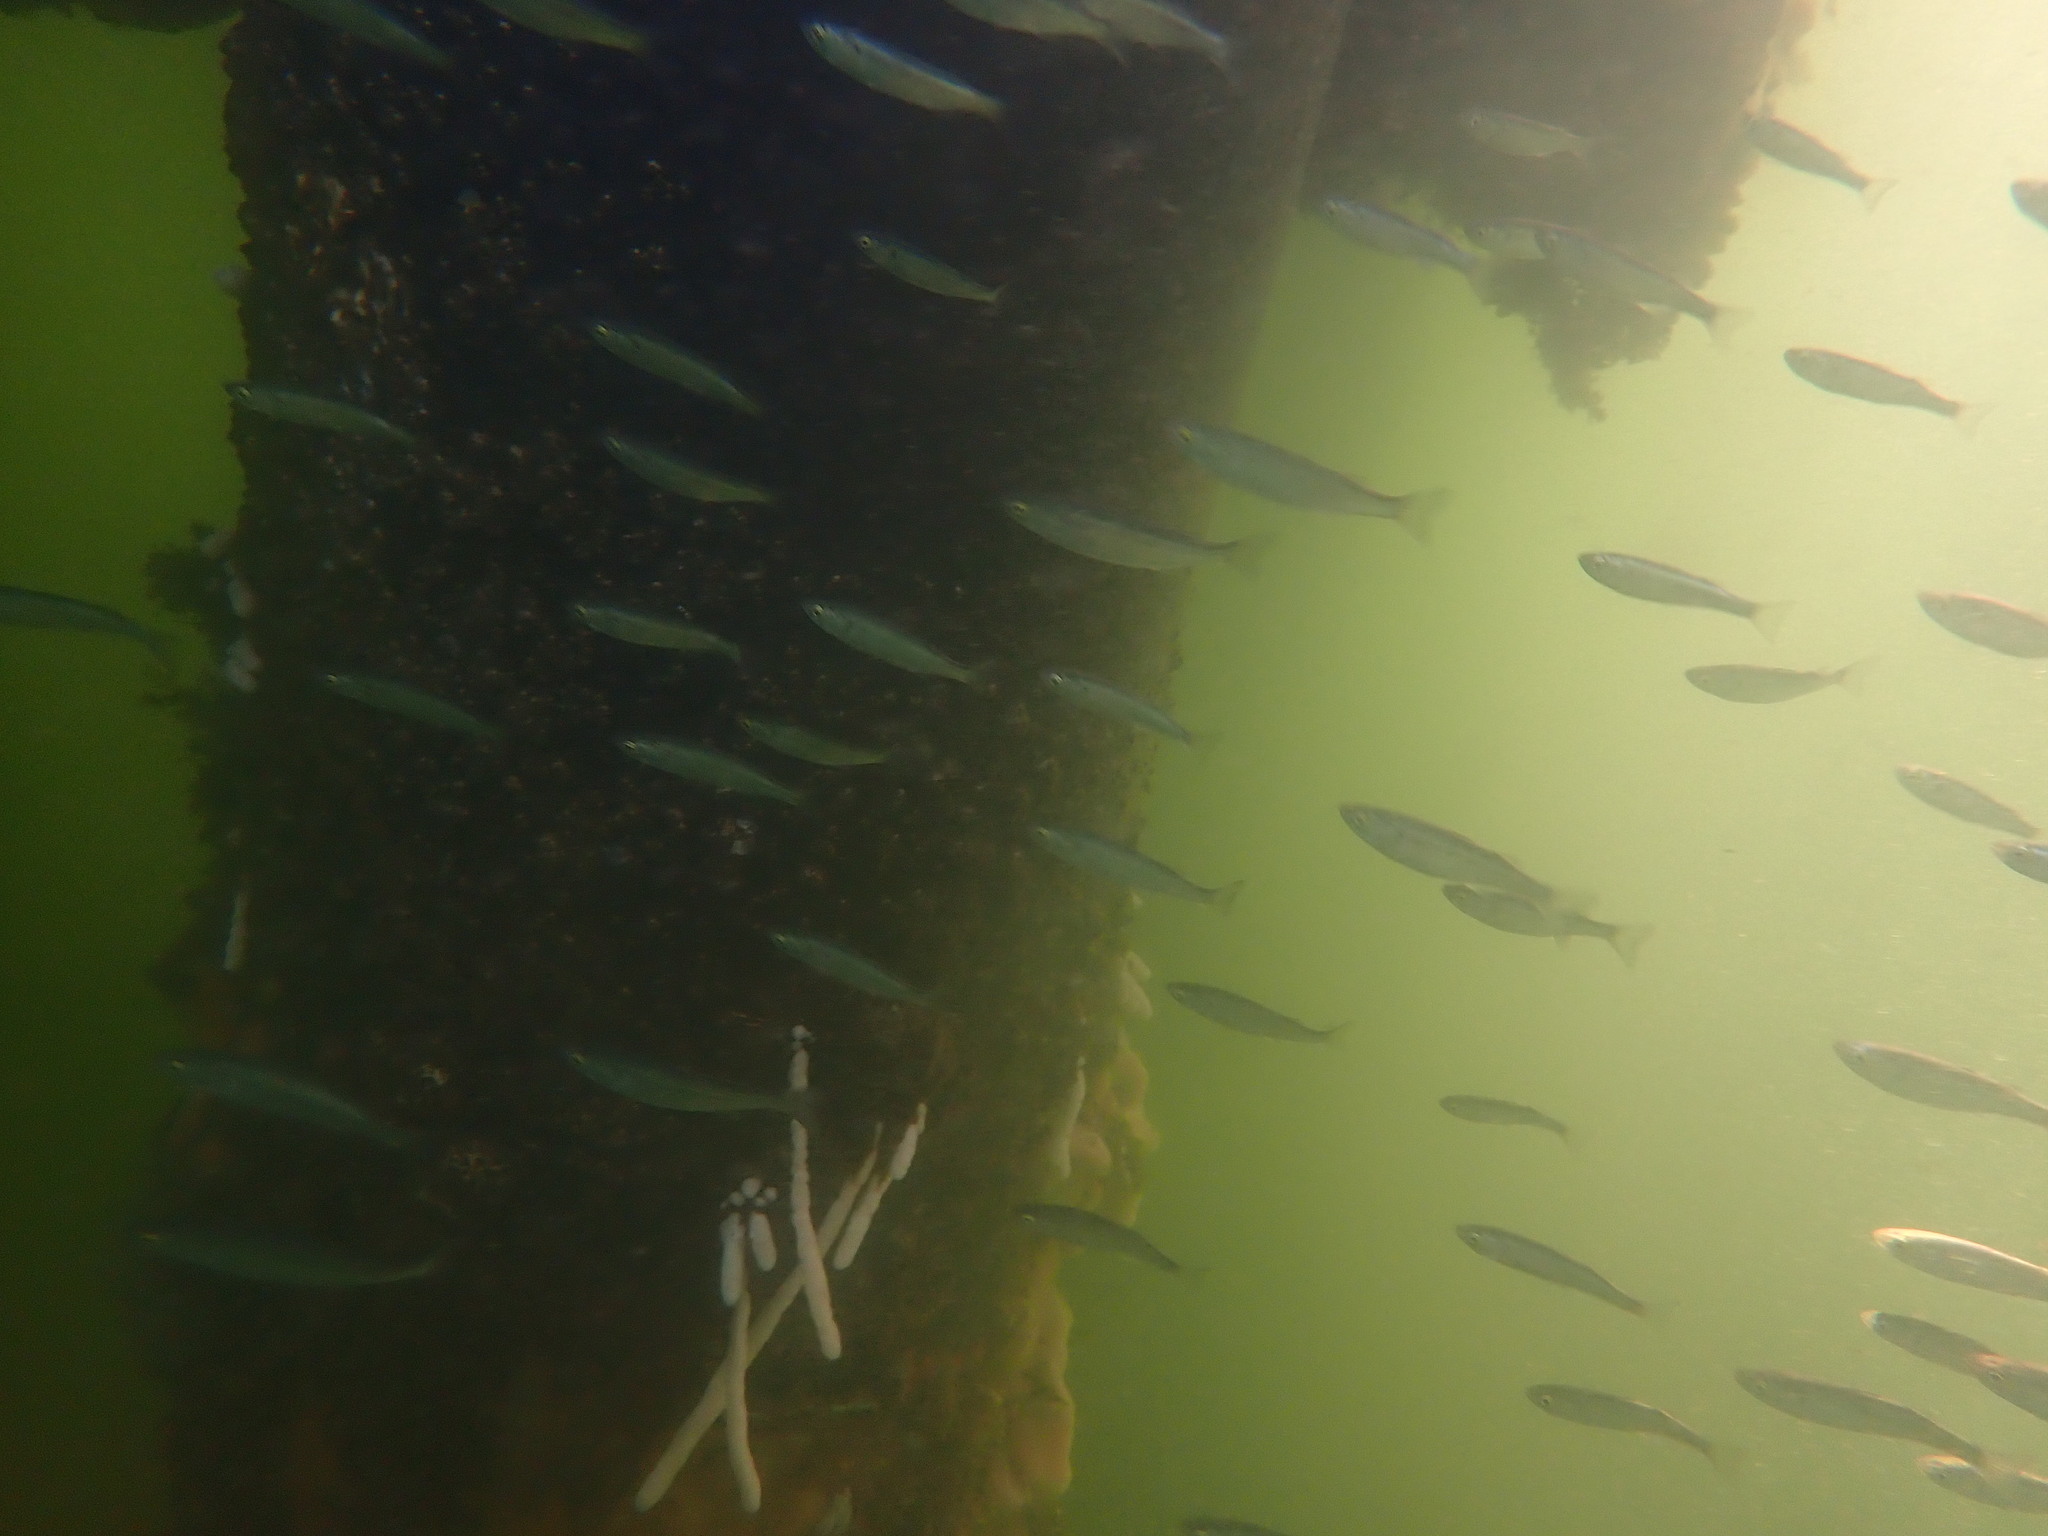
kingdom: Animalia
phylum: Chordata
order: Mugiliformes
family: Mugilidae
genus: Aldrichetta
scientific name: Aldrichetta forsteri
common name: Yellow-eye mullet
